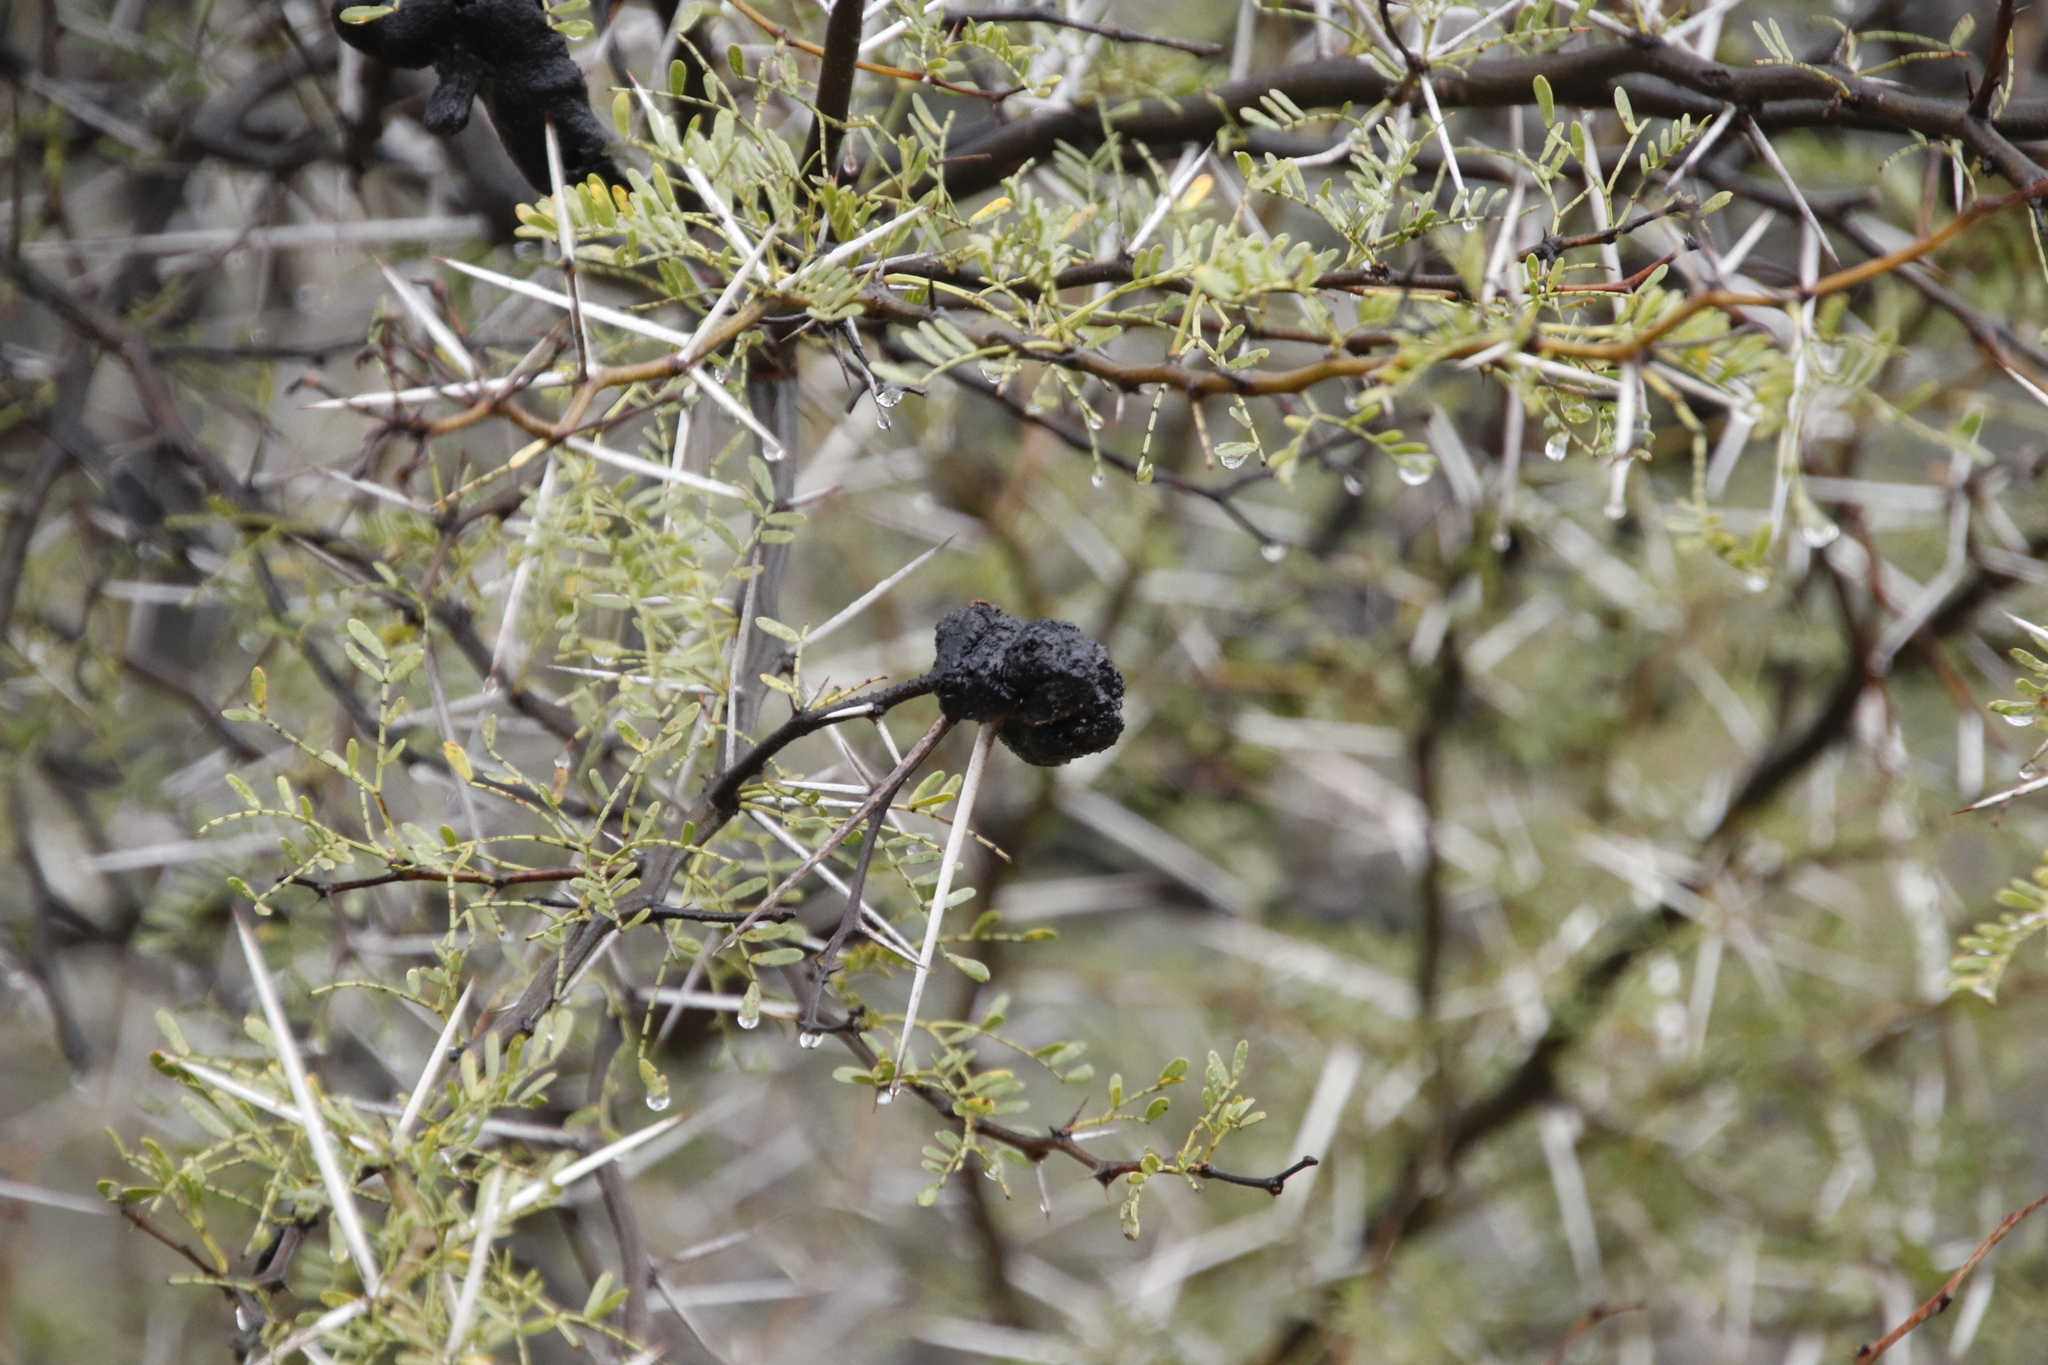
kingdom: Plantae
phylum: Tracheophyta
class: Magnoliopsida
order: Fabales
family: Fabaceae
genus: Vachellia
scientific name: Vachellia karroo
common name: Sweet thorn
